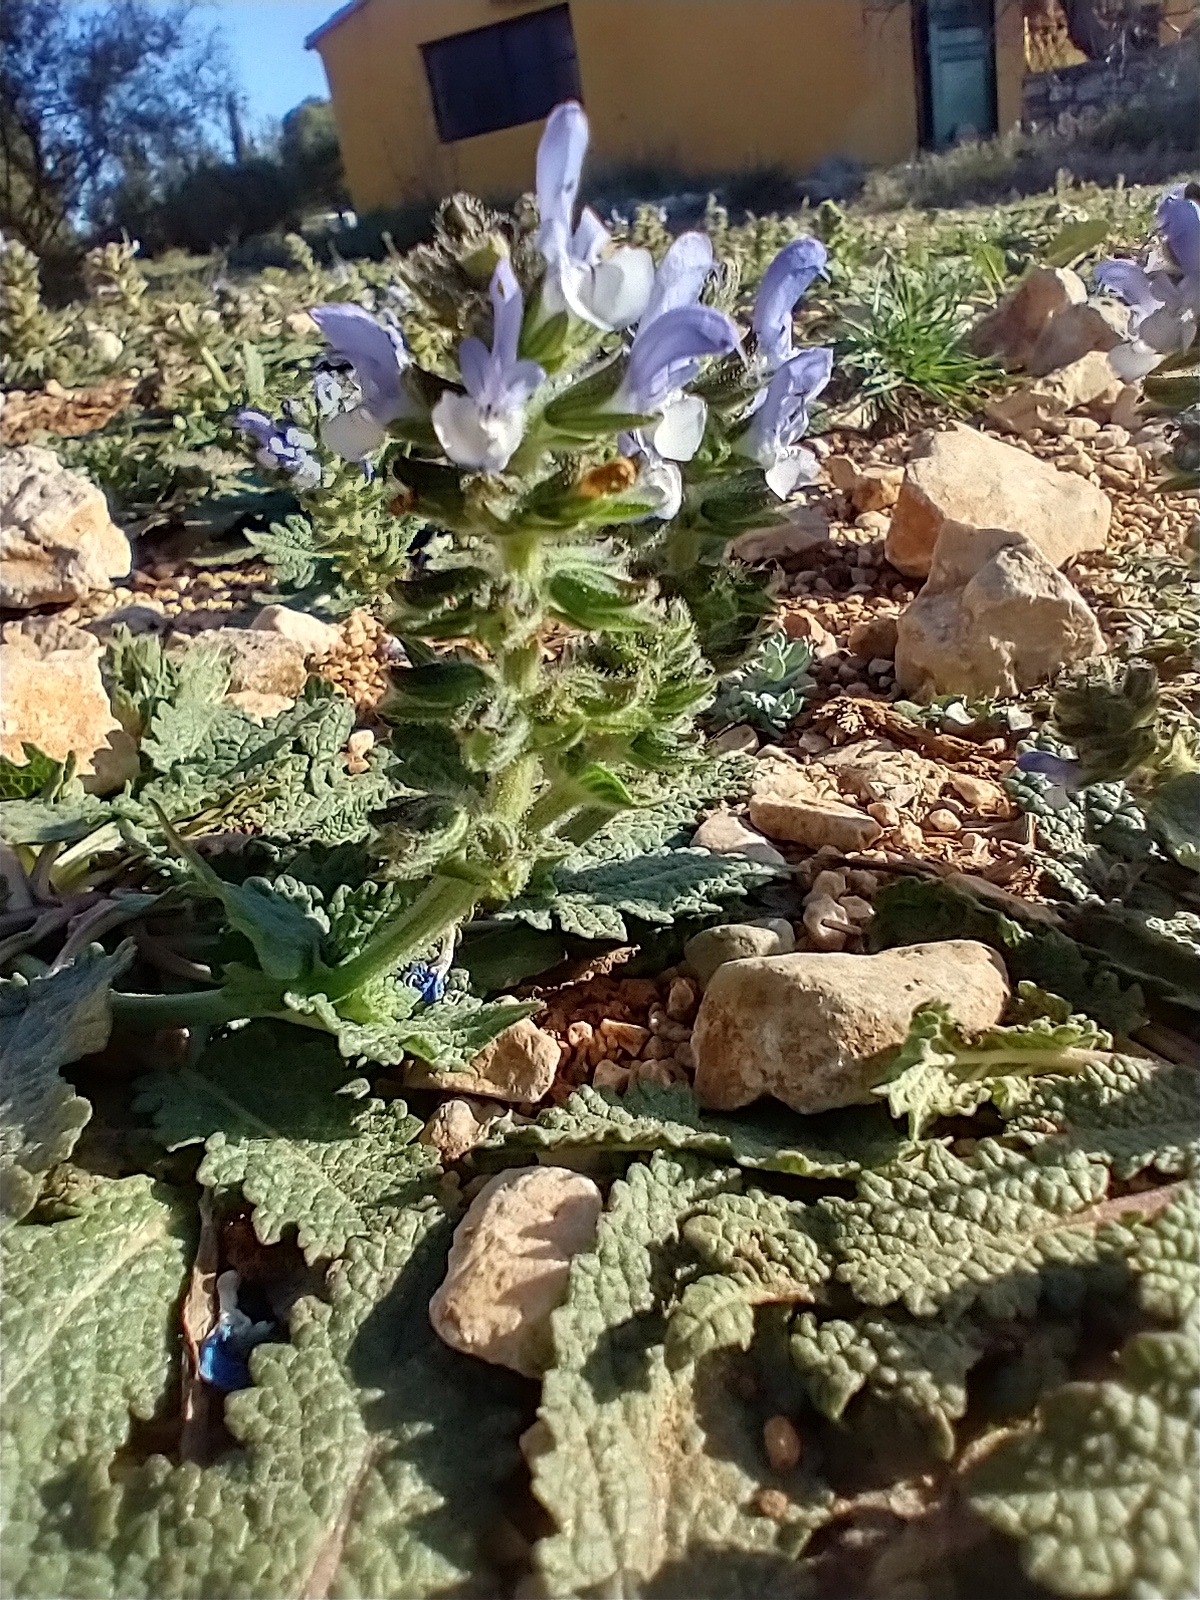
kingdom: Plantae
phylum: Tracheophyta
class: Magnoliopsida
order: Lamiales
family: Lamiaceae
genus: Salvia
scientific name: Salvia clandestina
